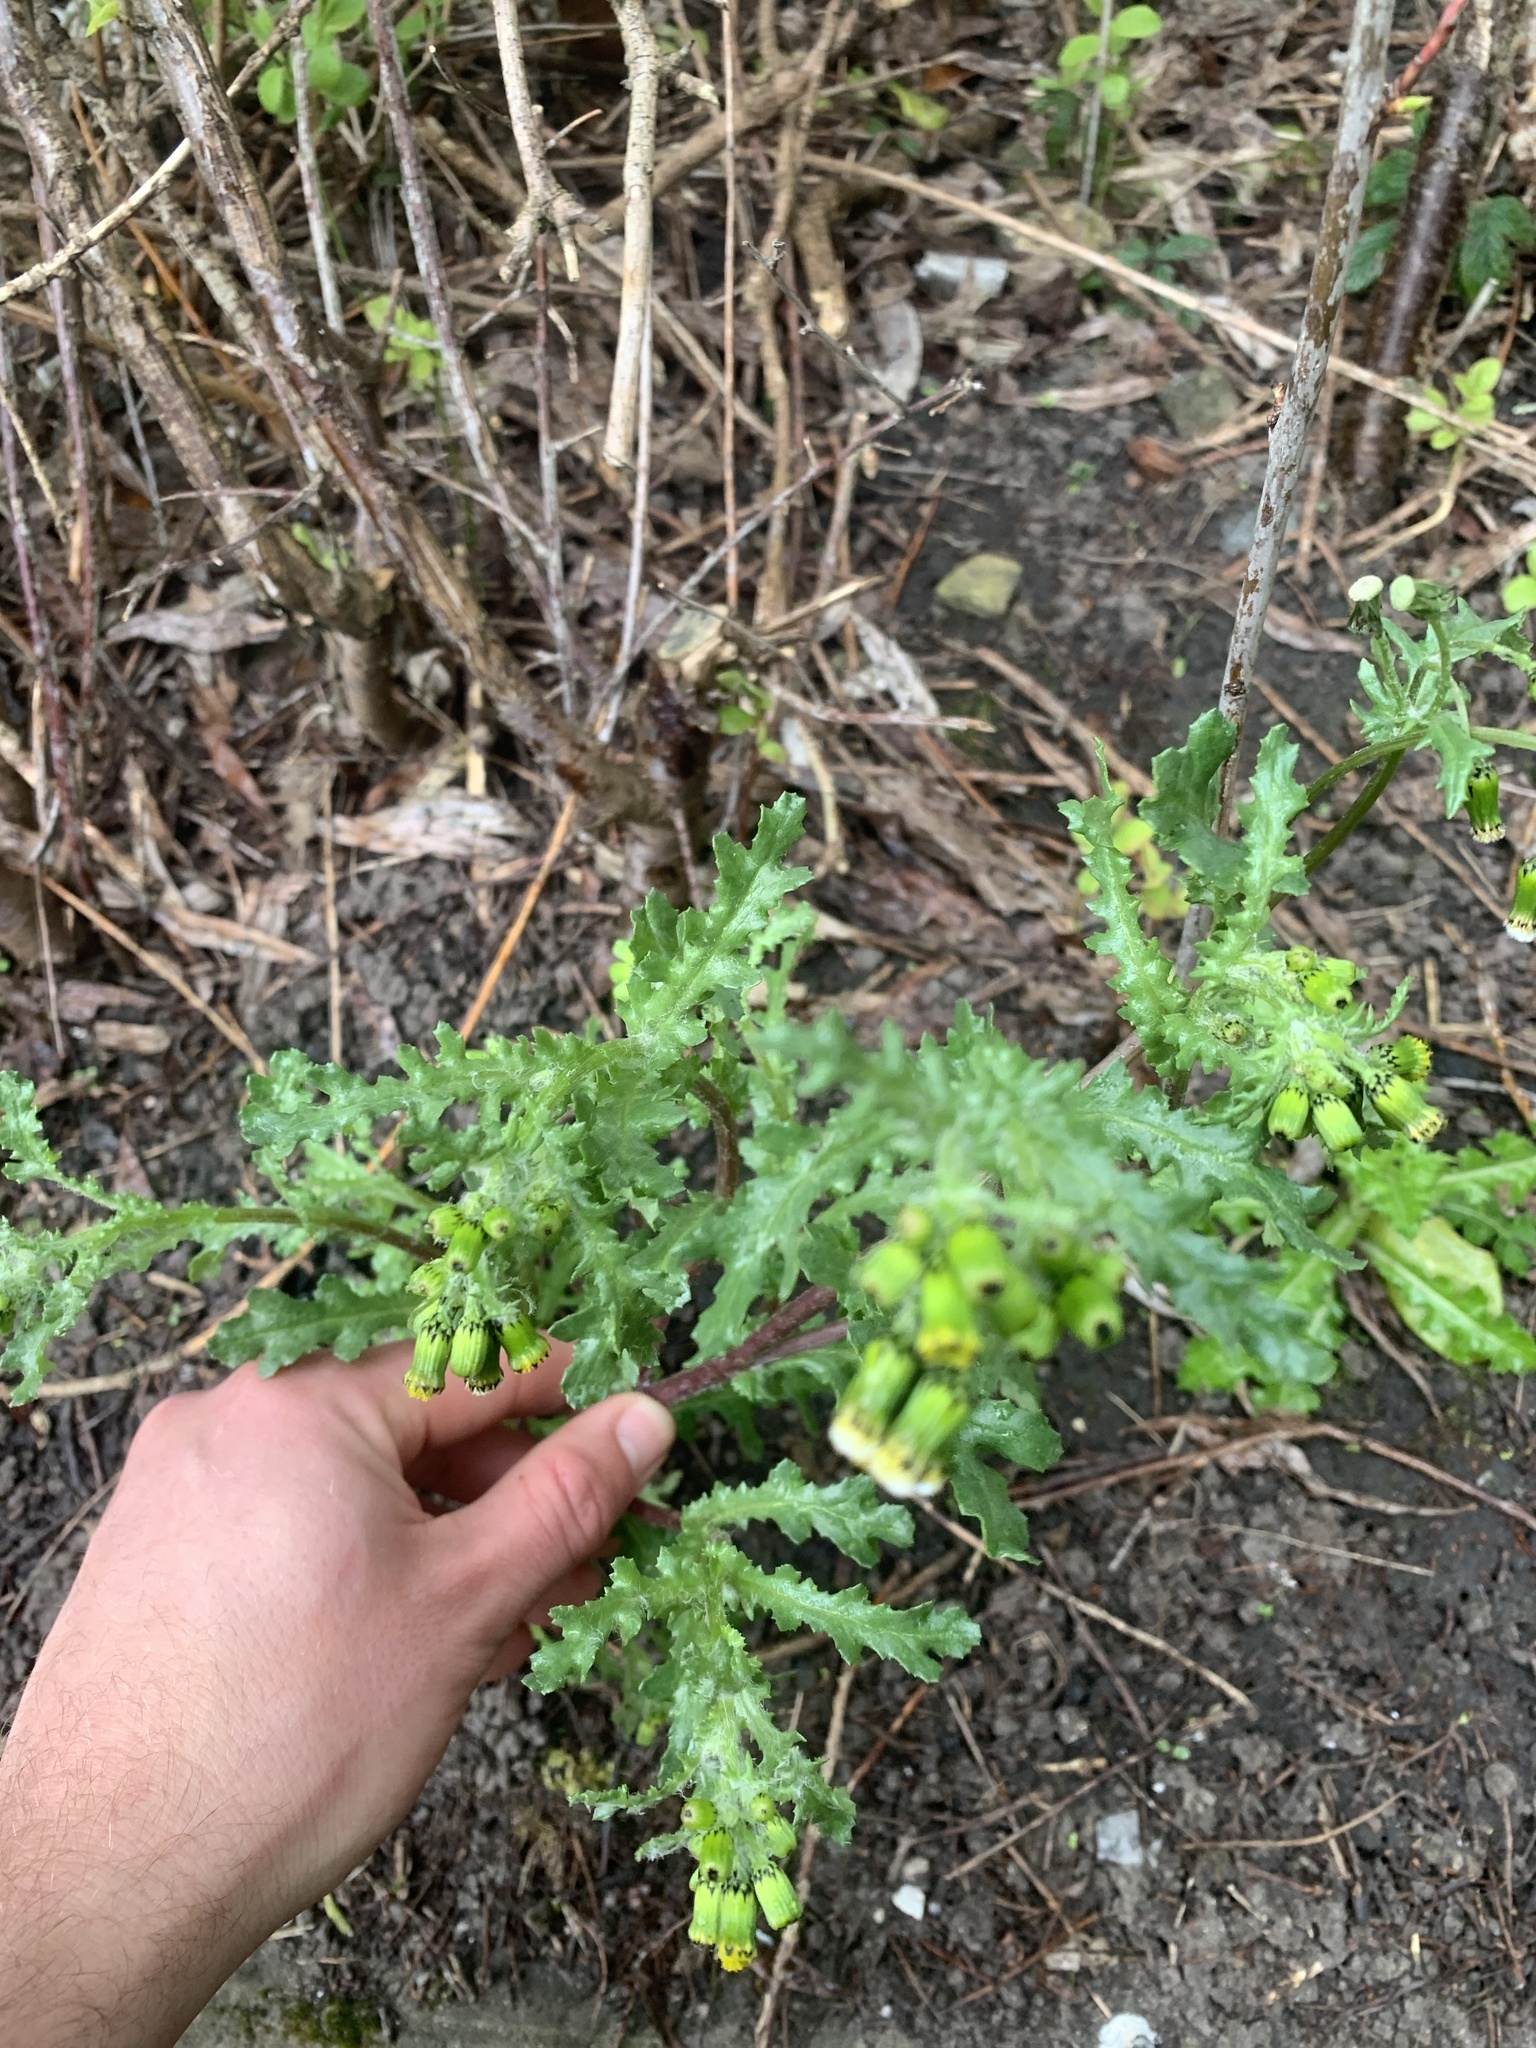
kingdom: Plantae
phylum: Tracheophyta
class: Magnoliopsida
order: Asterales
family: Asteraceae
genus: Senecio
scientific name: Senecio vulgaris
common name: Old-man-in-the-spring
